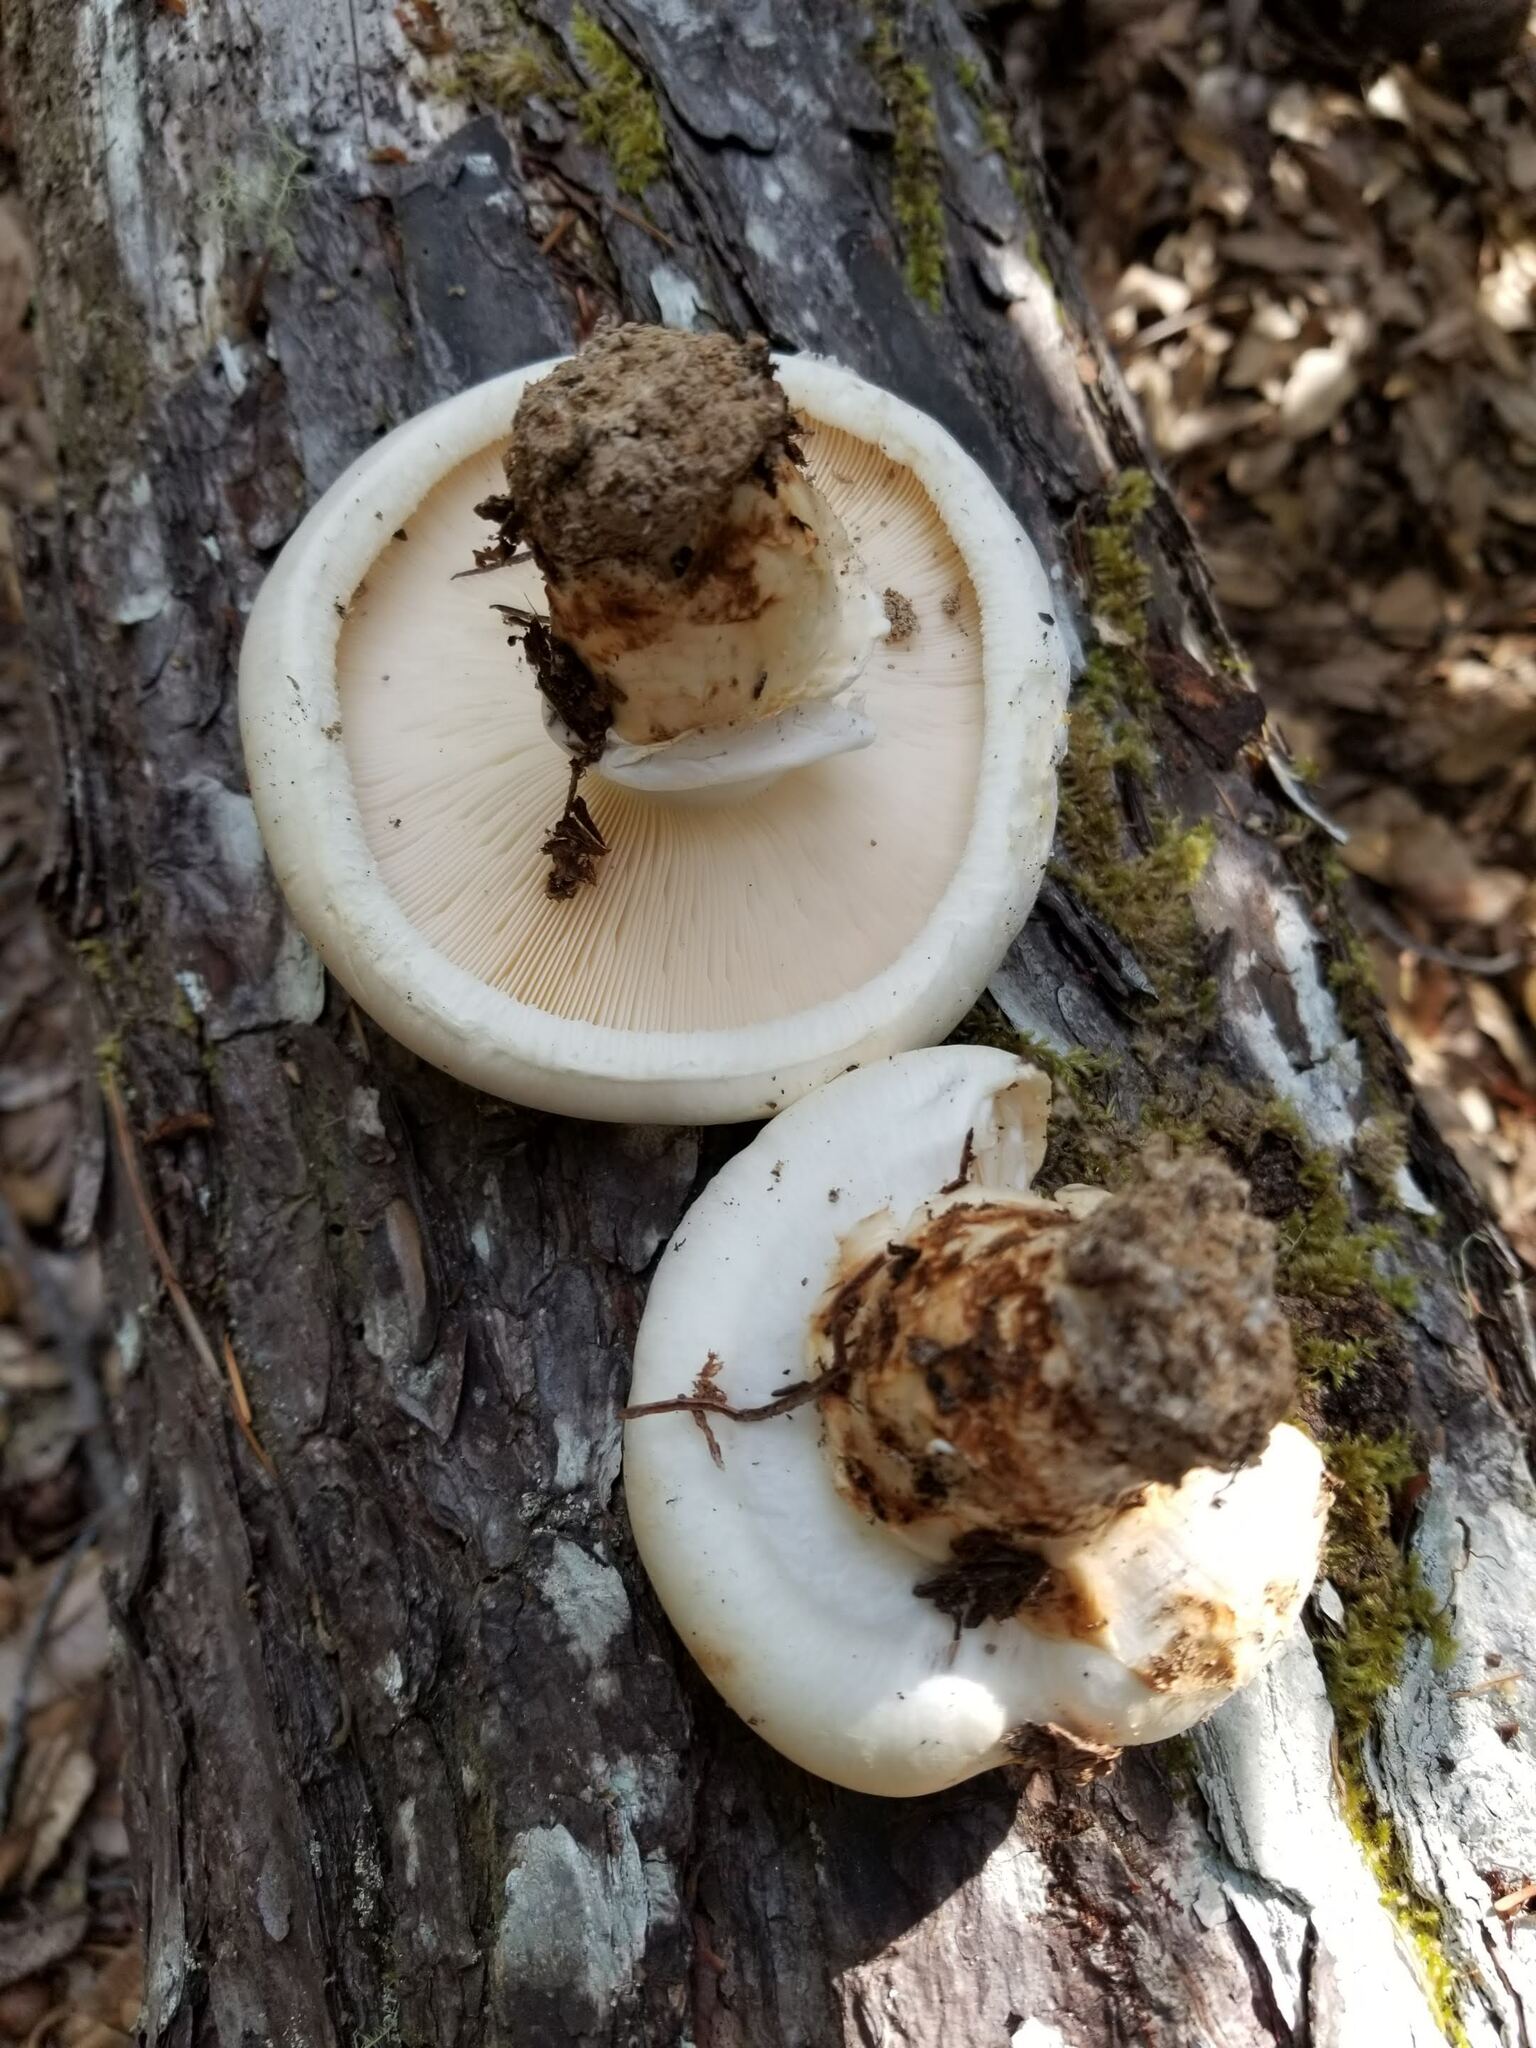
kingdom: Fungi
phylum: Basidiomycota
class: Agaricomycetes
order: Agaricales
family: Tricholomataceae
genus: Tricholoma
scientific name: Tricholoma murrillianum
